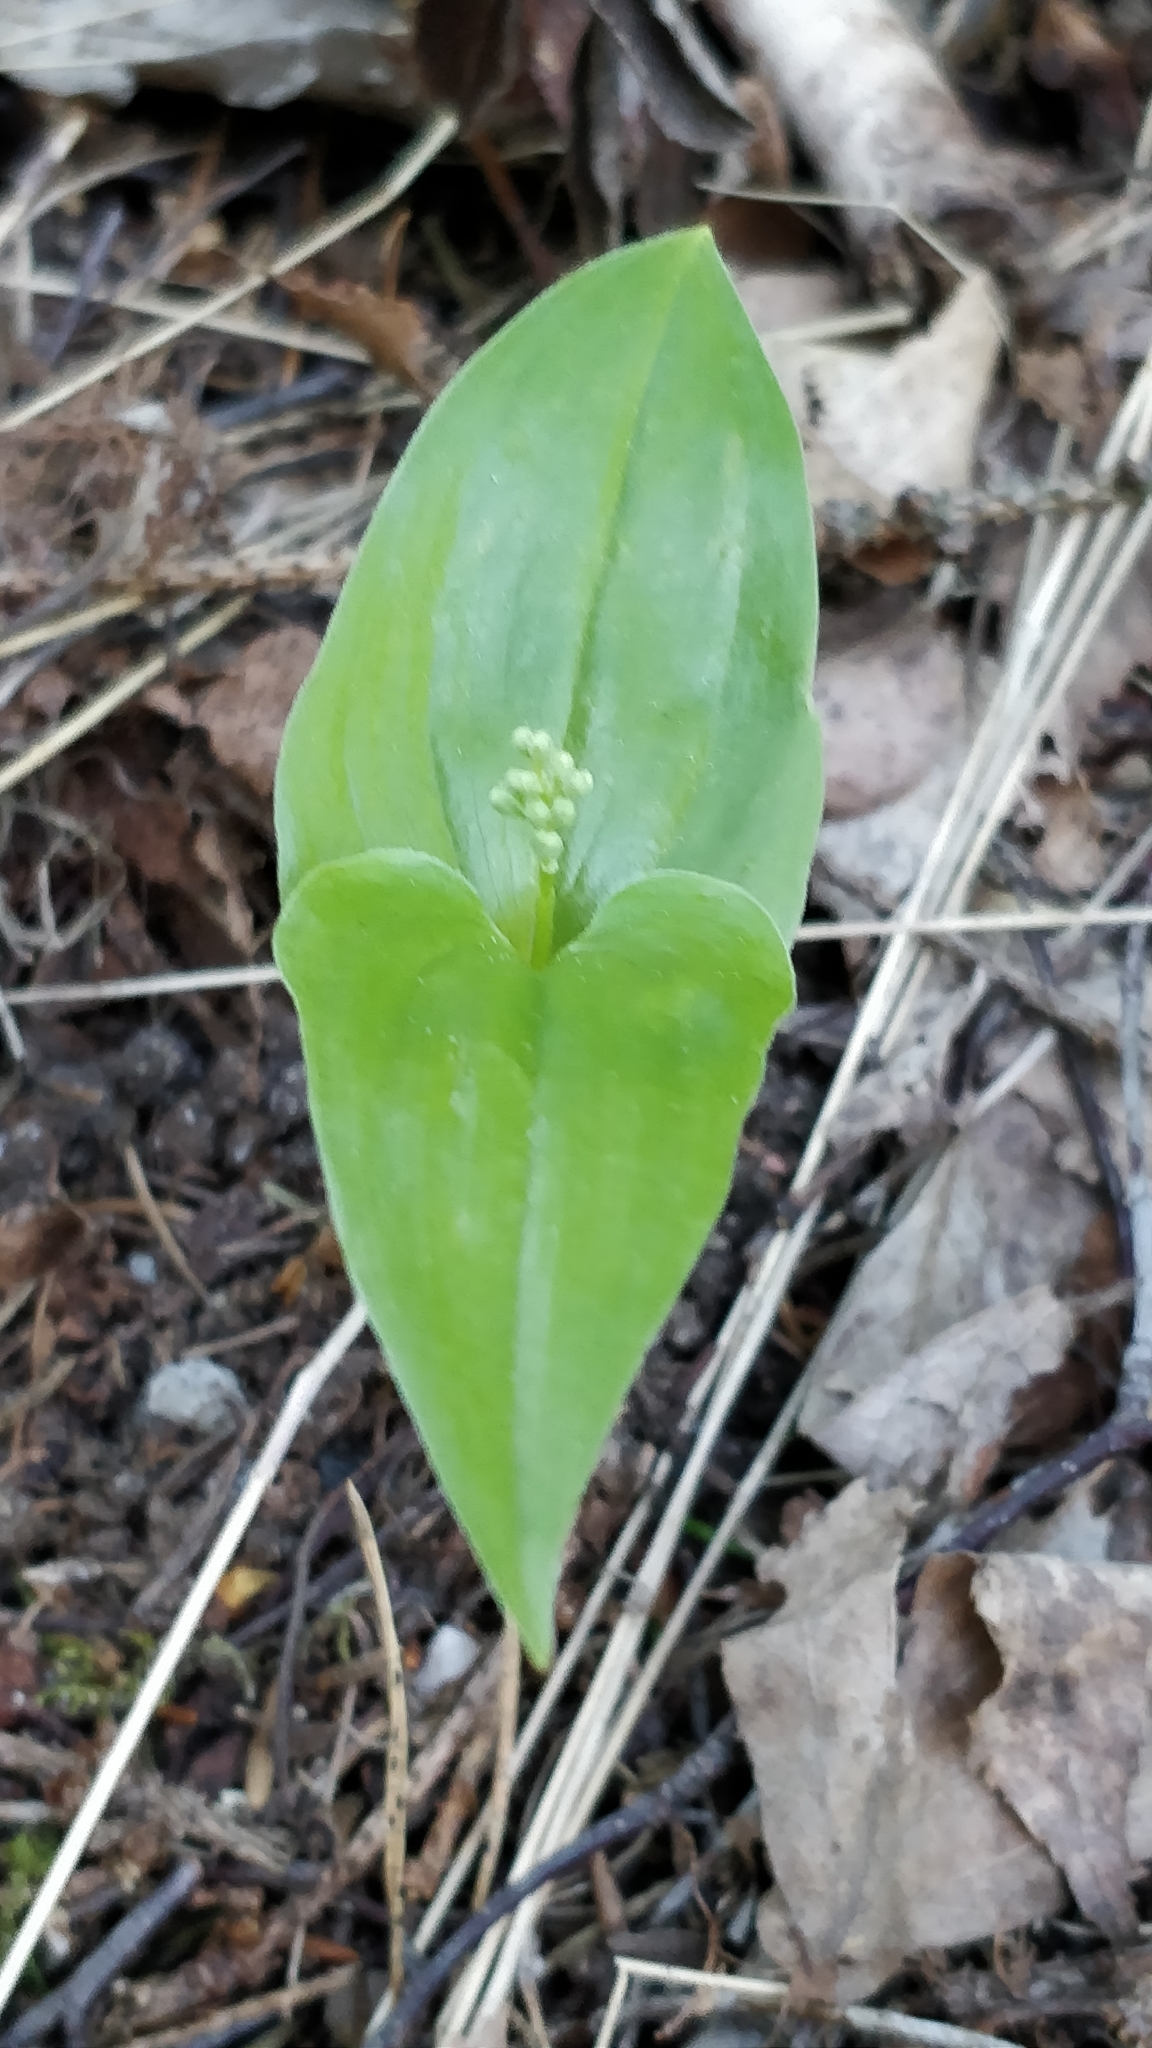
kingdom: Plantae
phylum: Tracheophyta
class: Liliopsida
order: Asparagales
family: Asparagaceae
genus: Maianthemum
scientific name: Maianthemum bifolium
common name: May lily
